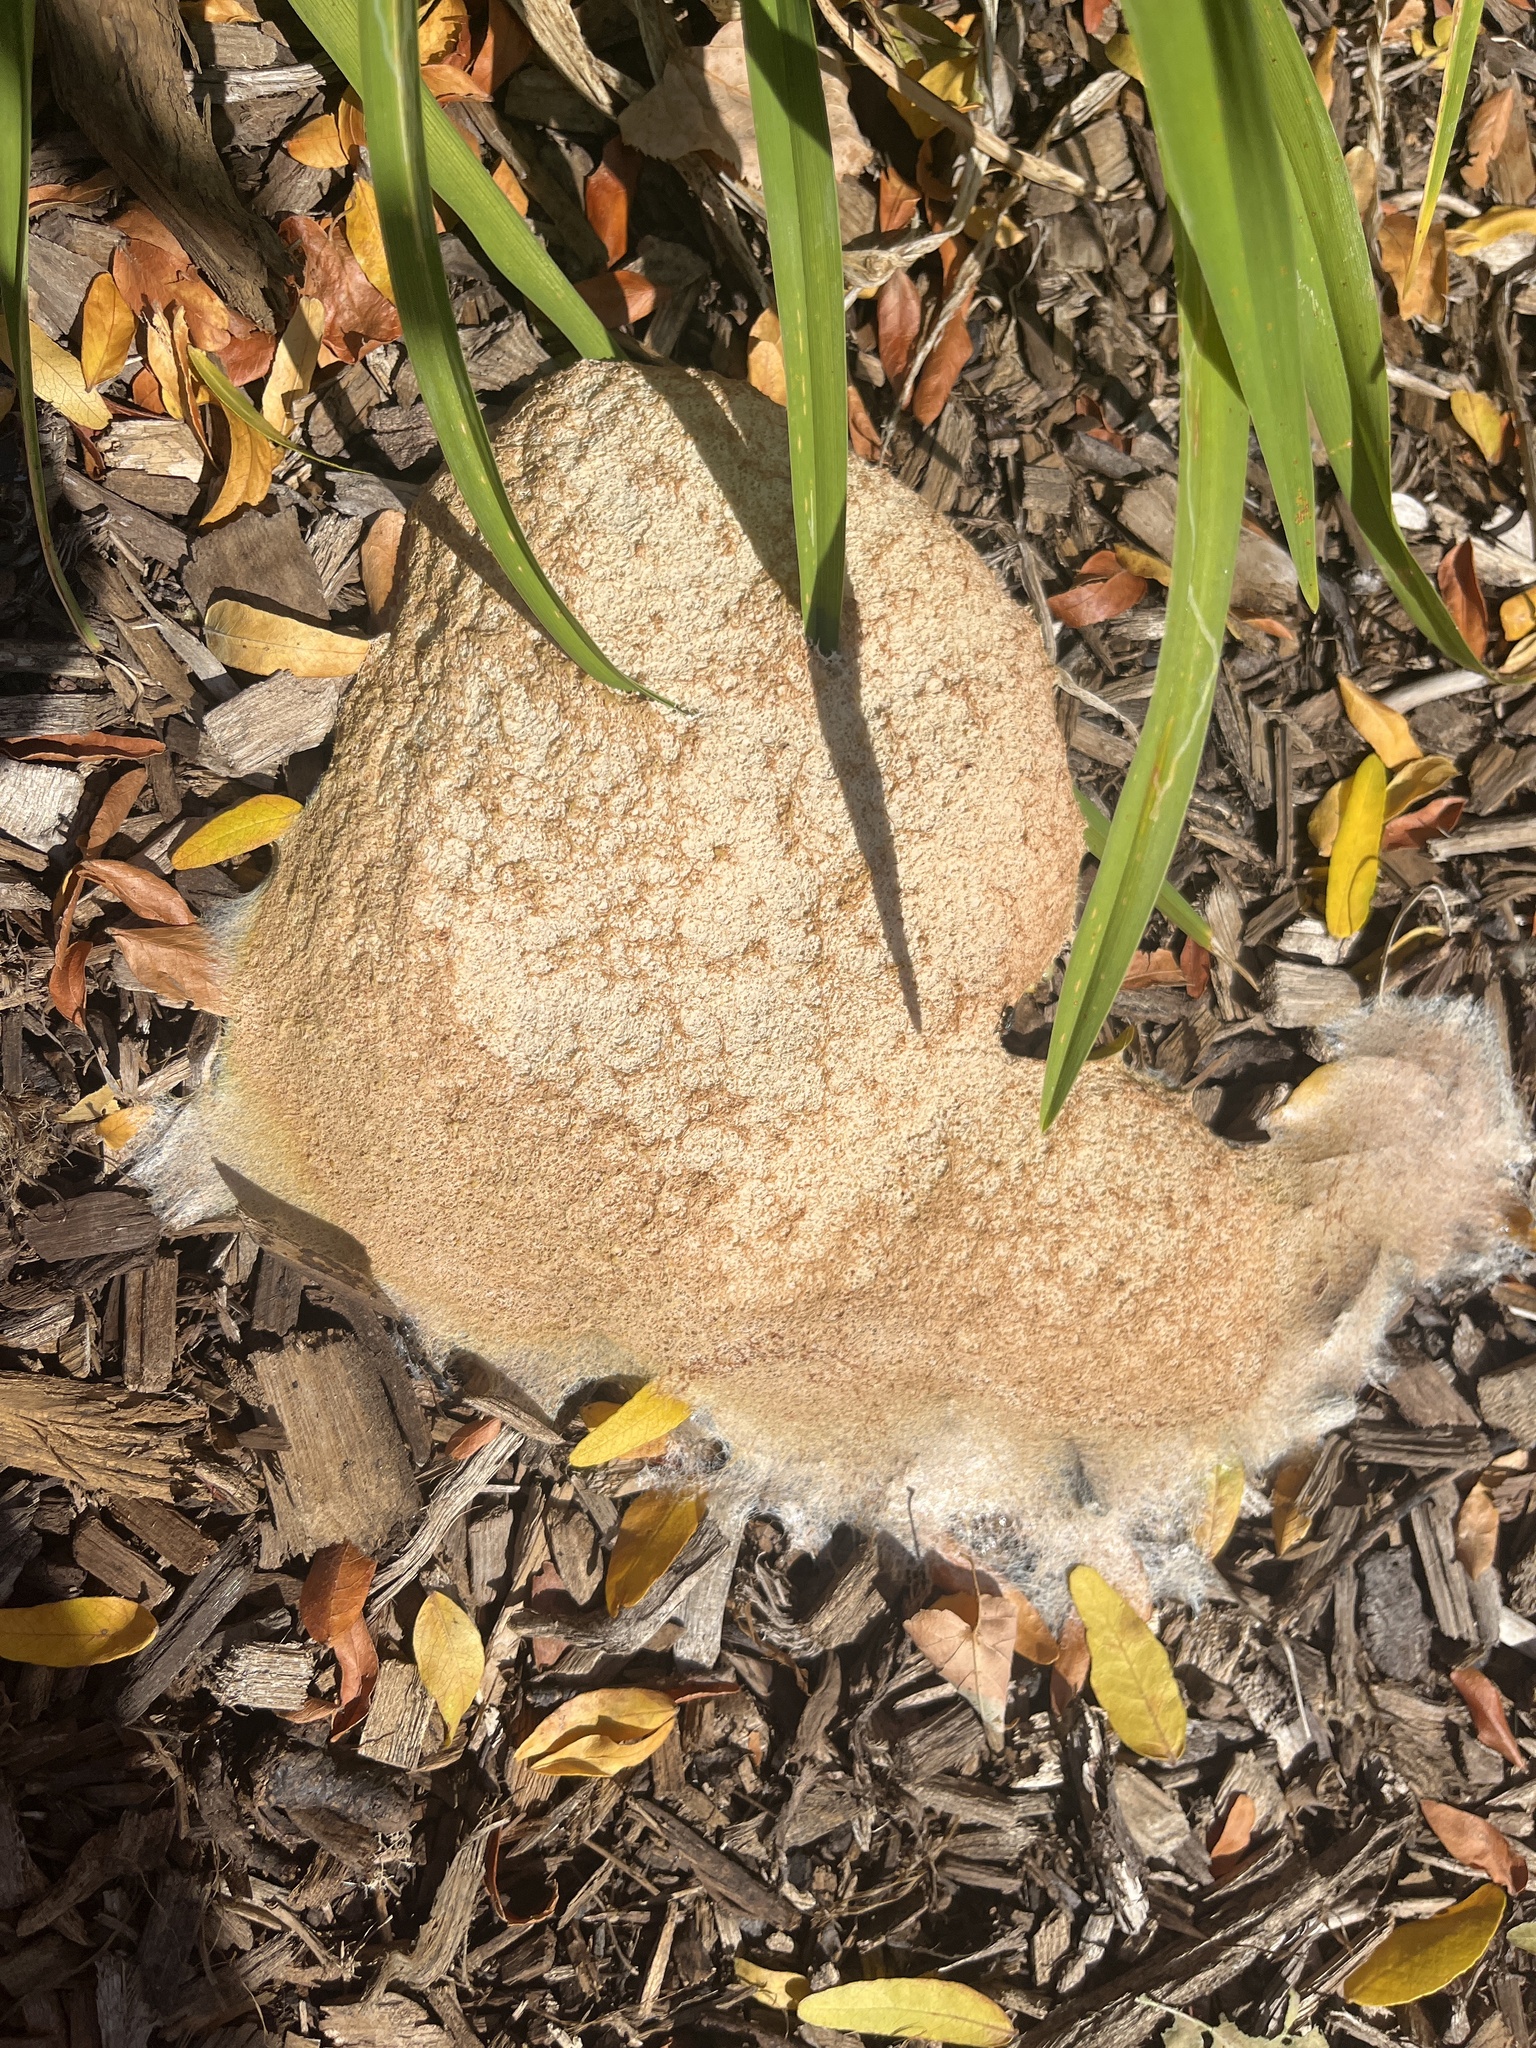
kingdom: Protozoa
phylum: Mycetozoa
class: Myxomycetes
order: Physarales
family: Physaraceae
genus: Fuligo
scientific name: Fuligo septica
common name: Dog vomit slime mold
